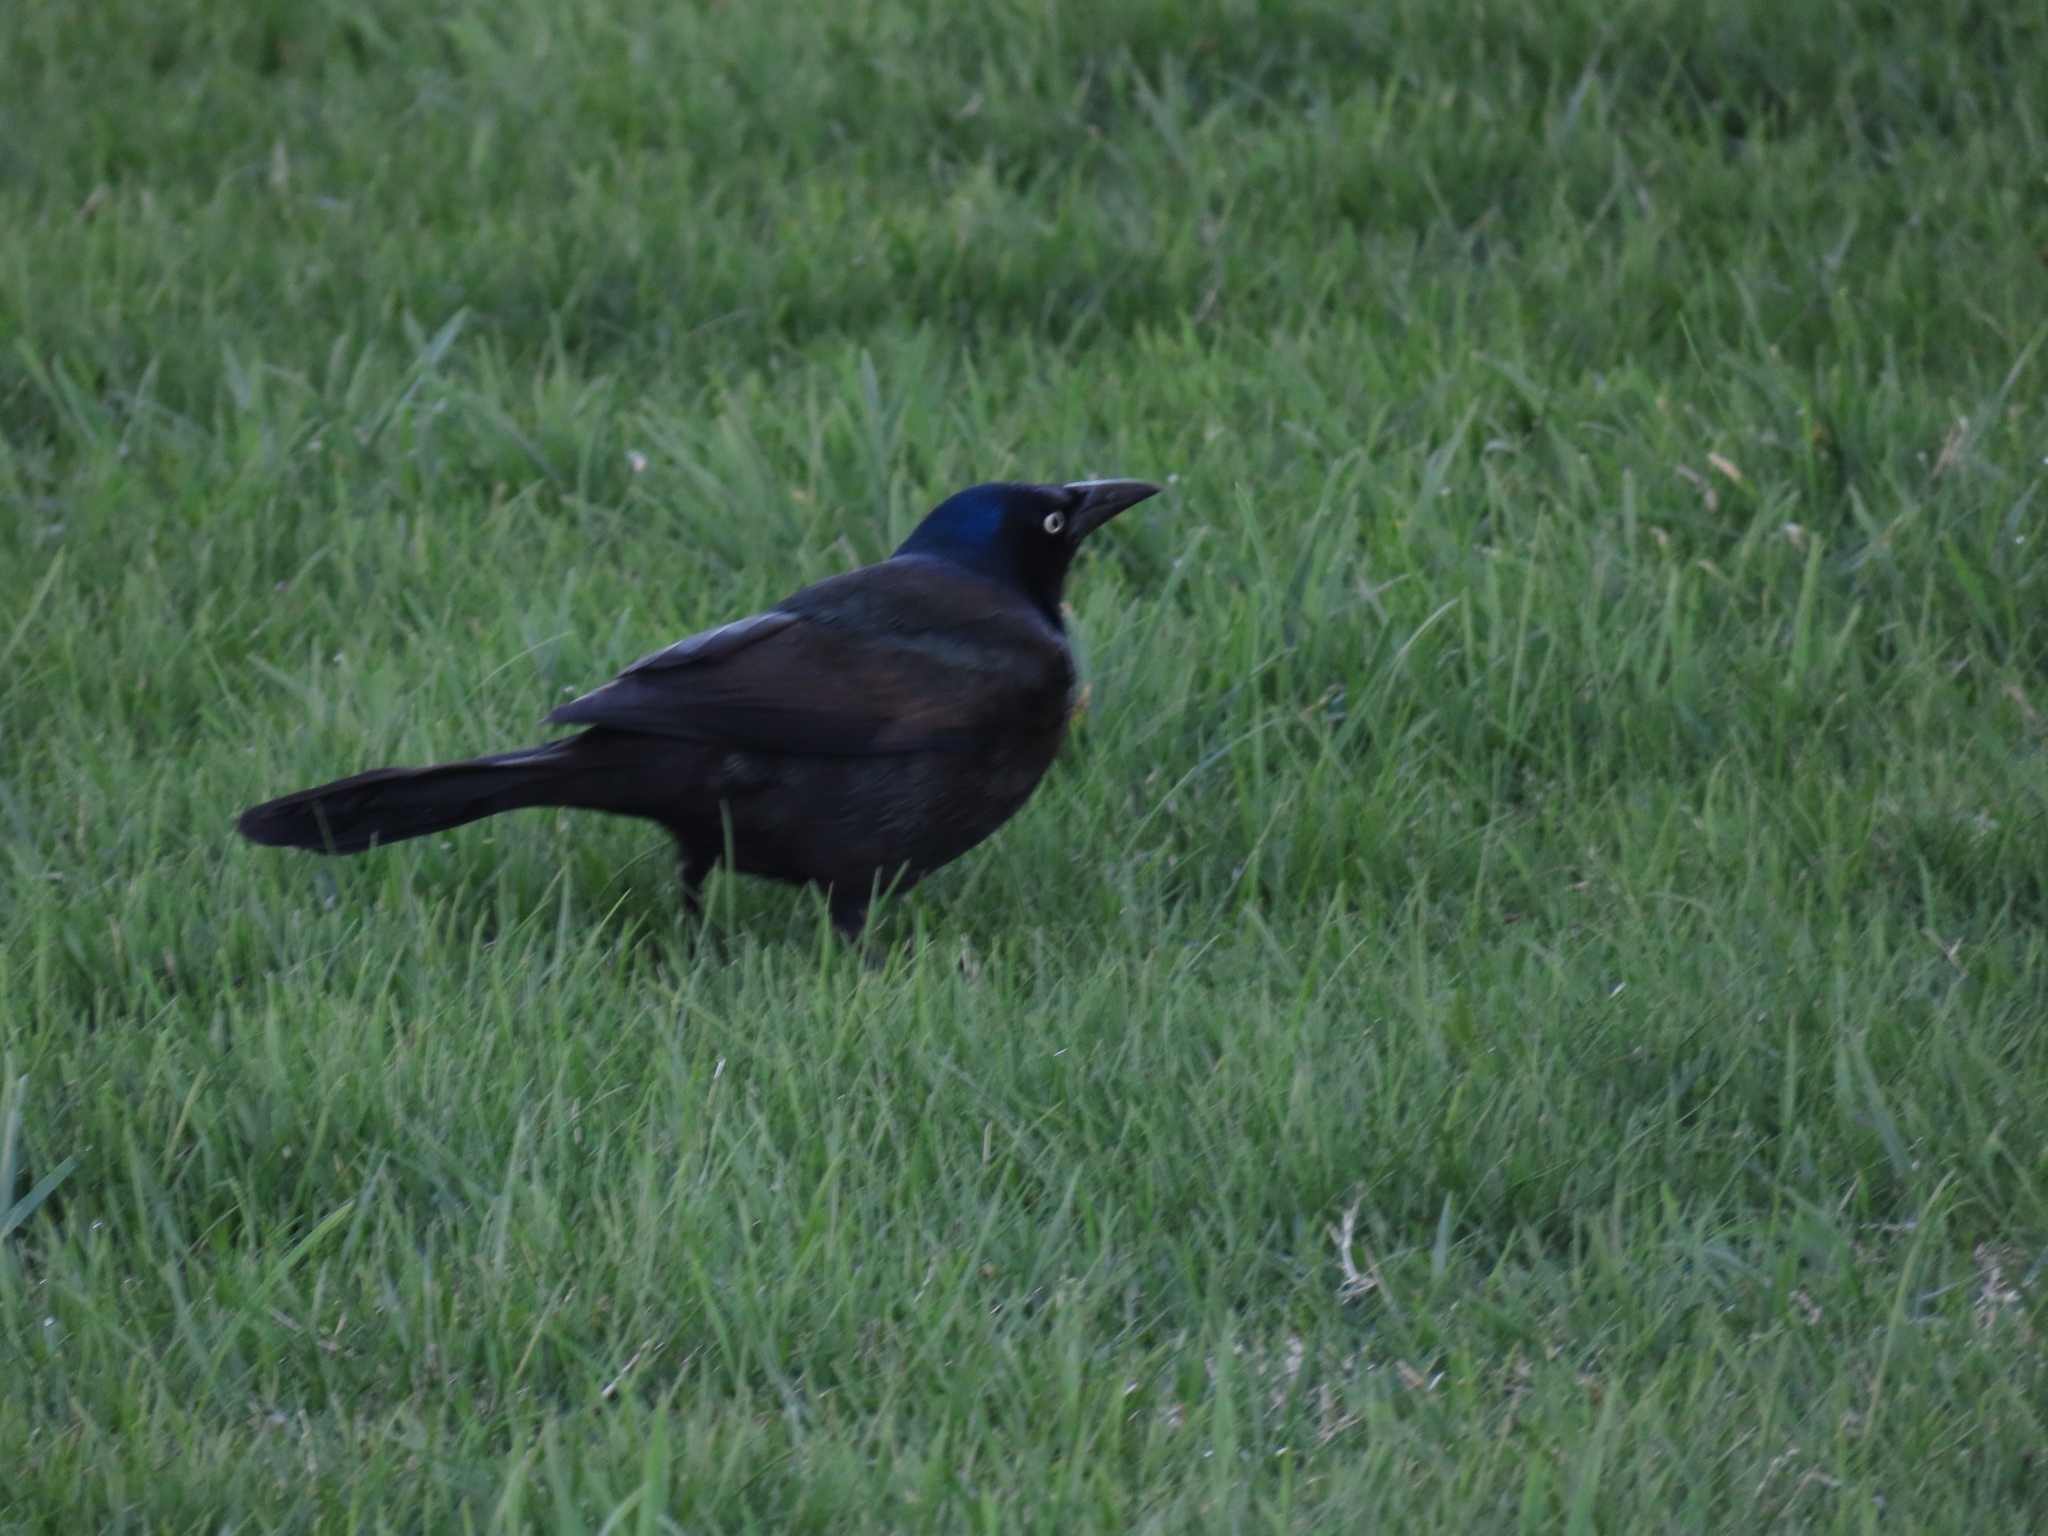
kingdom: Animalia
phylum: Chordata
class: Aves
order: Passeriformes
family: Icteridae
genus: Quiscalus
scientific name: Quiscalus quiscula
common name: Common grackle
